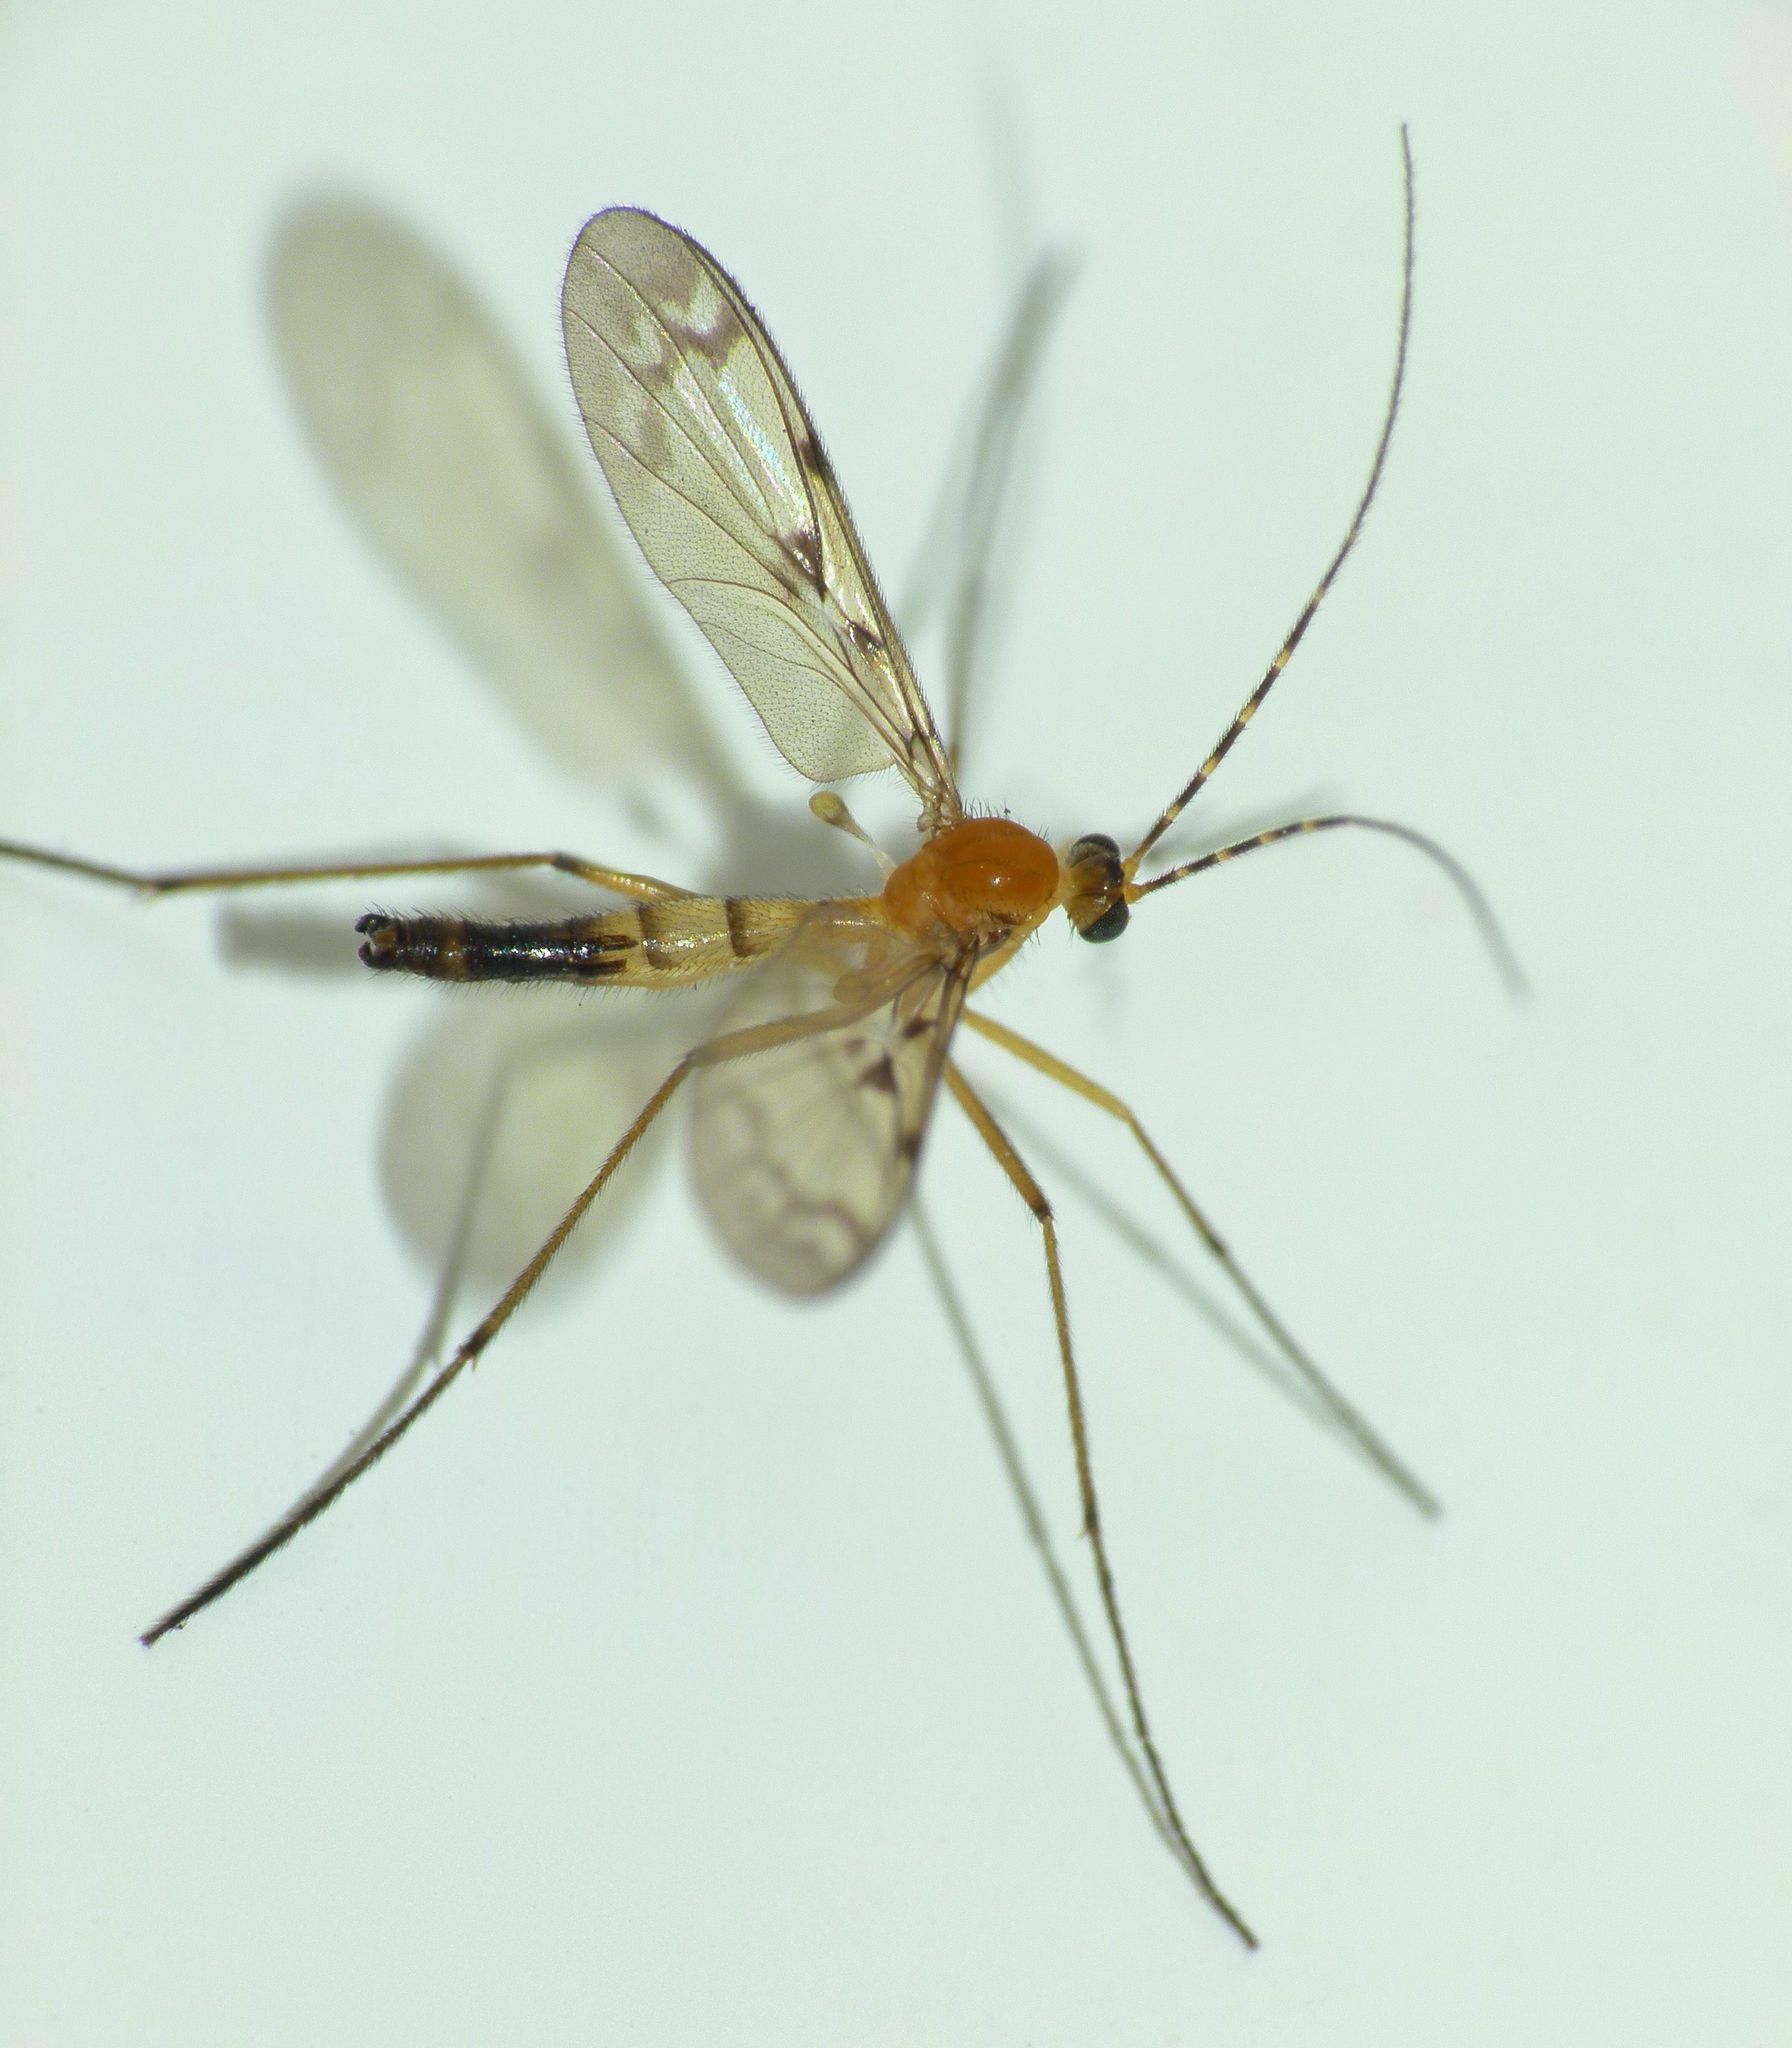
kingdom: Animalia
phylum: Arthropoda
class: Insecta
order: Diptera
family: Keroplatidae
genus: Chiasmoneura
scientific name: Chiasmoneura milligani
